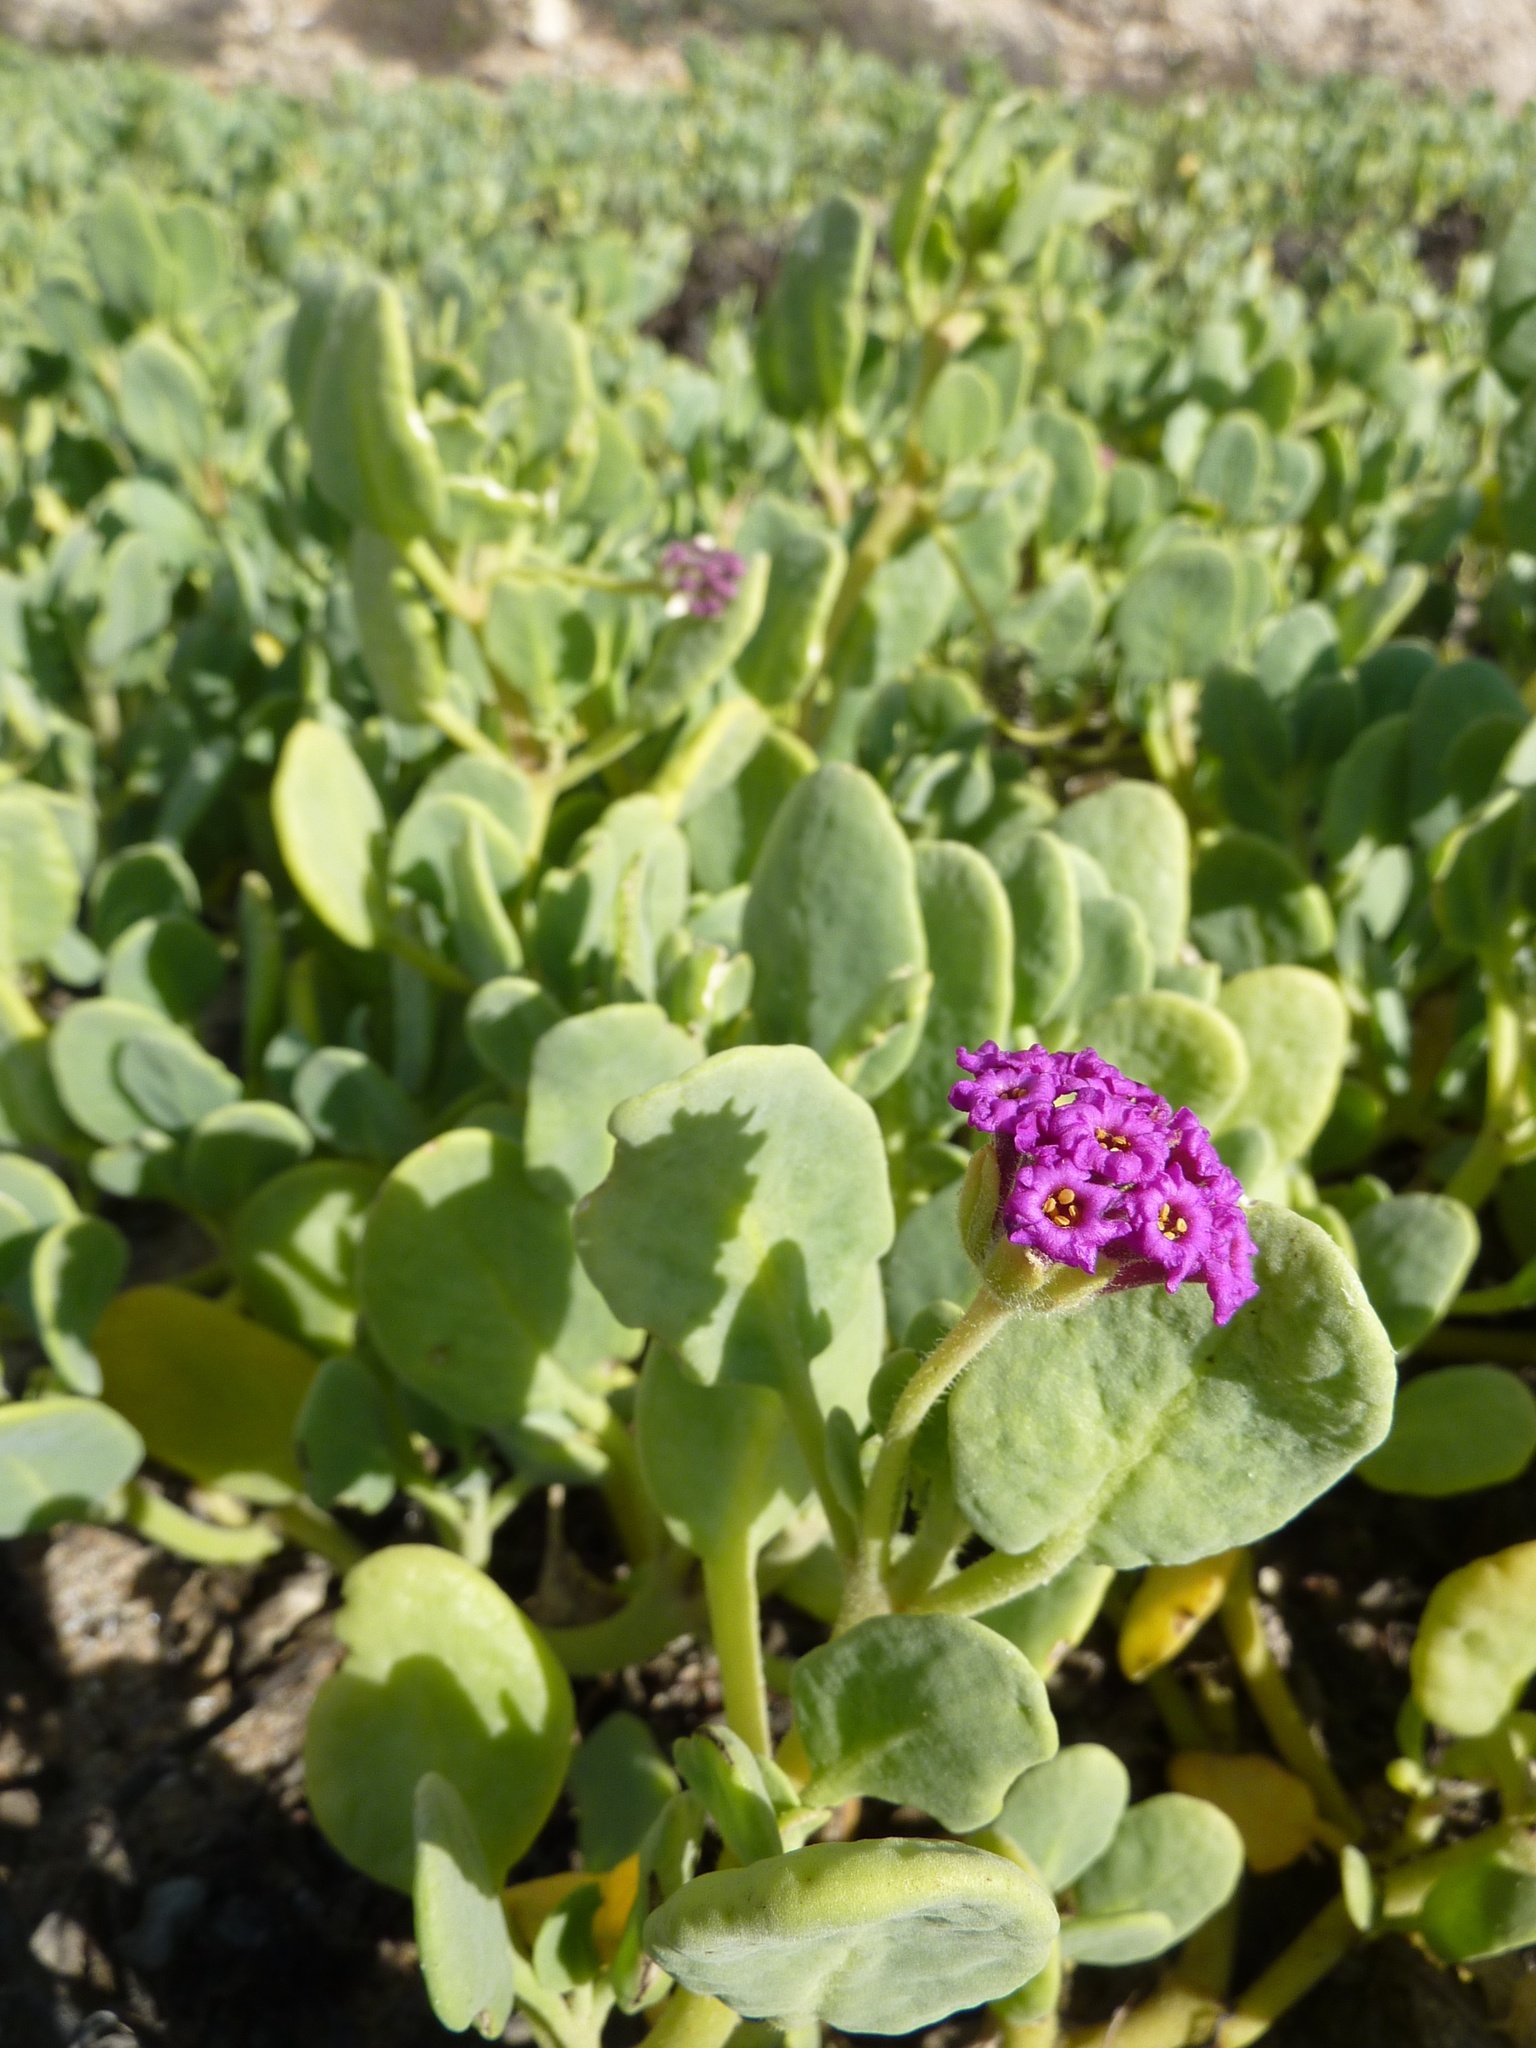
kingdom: Plantae
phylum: Tracheophyta
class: Magnoliopsida
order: Caryophyllales
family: Nyctaginaceae
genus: Abronia
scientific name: Abronia maritima
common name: Red sand-verbena
